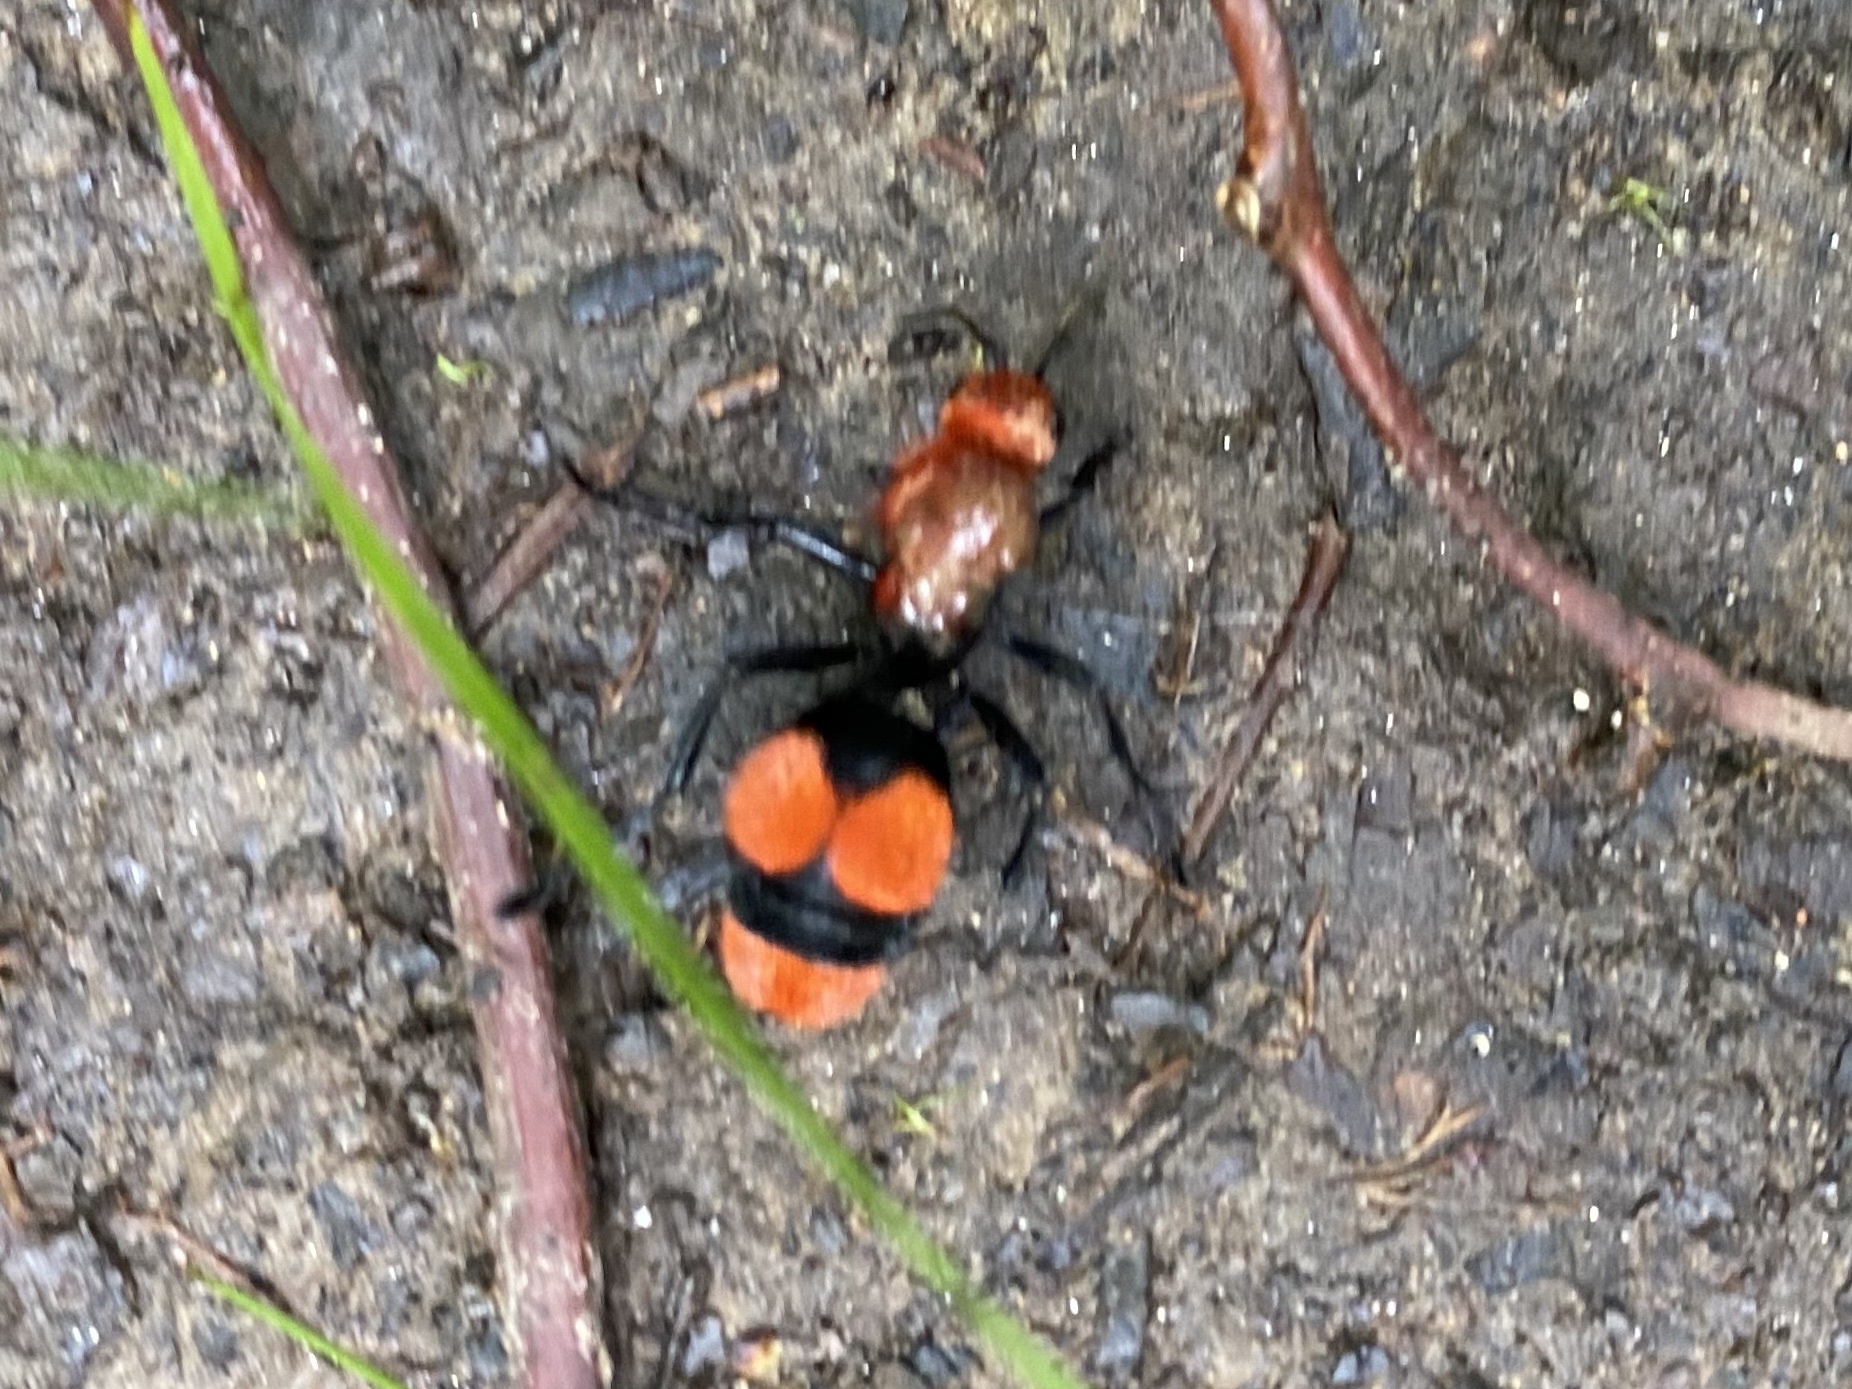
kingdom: Animalia
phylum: Arthropoda
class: Insecta
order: Hymenoptera
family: Mutillidae
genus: Dasymutilla
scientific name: Dasymutilla occidentalis
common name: Common eastern velvet ant
